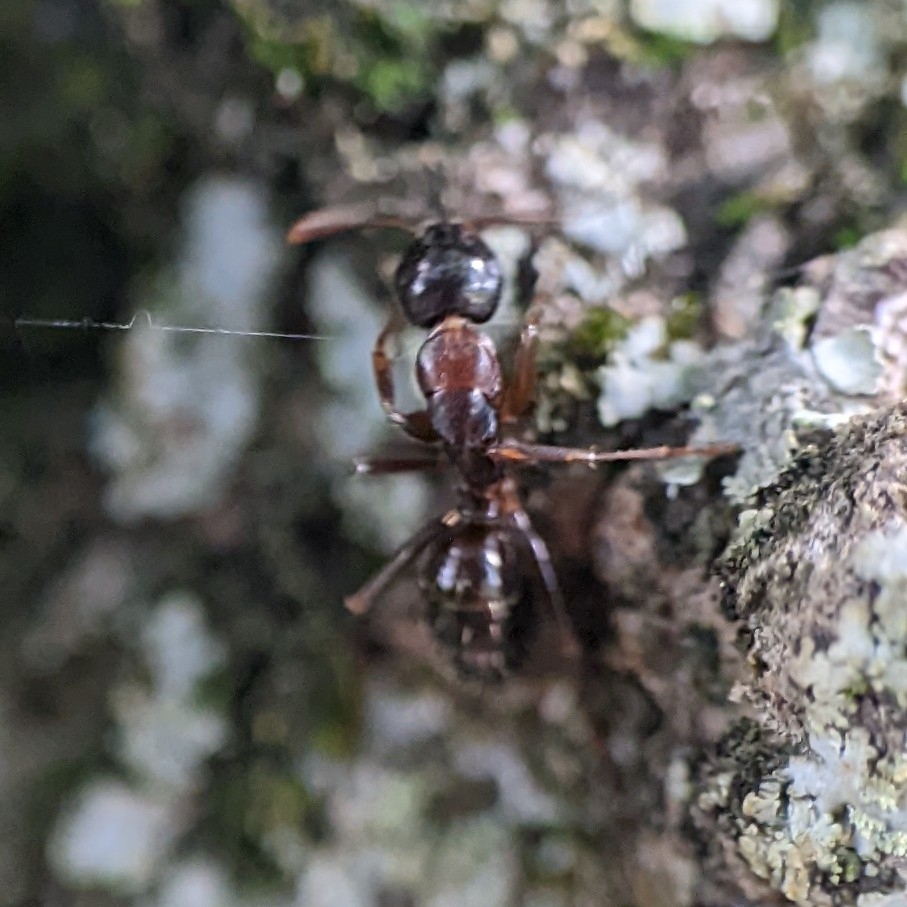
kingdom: Animalia
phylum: Arthropoda
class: Insecta
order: Hymenoptera
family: Formicidae
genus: Camponotus
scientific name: Camponotus nearcticus
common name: Smaller carpenter ant
